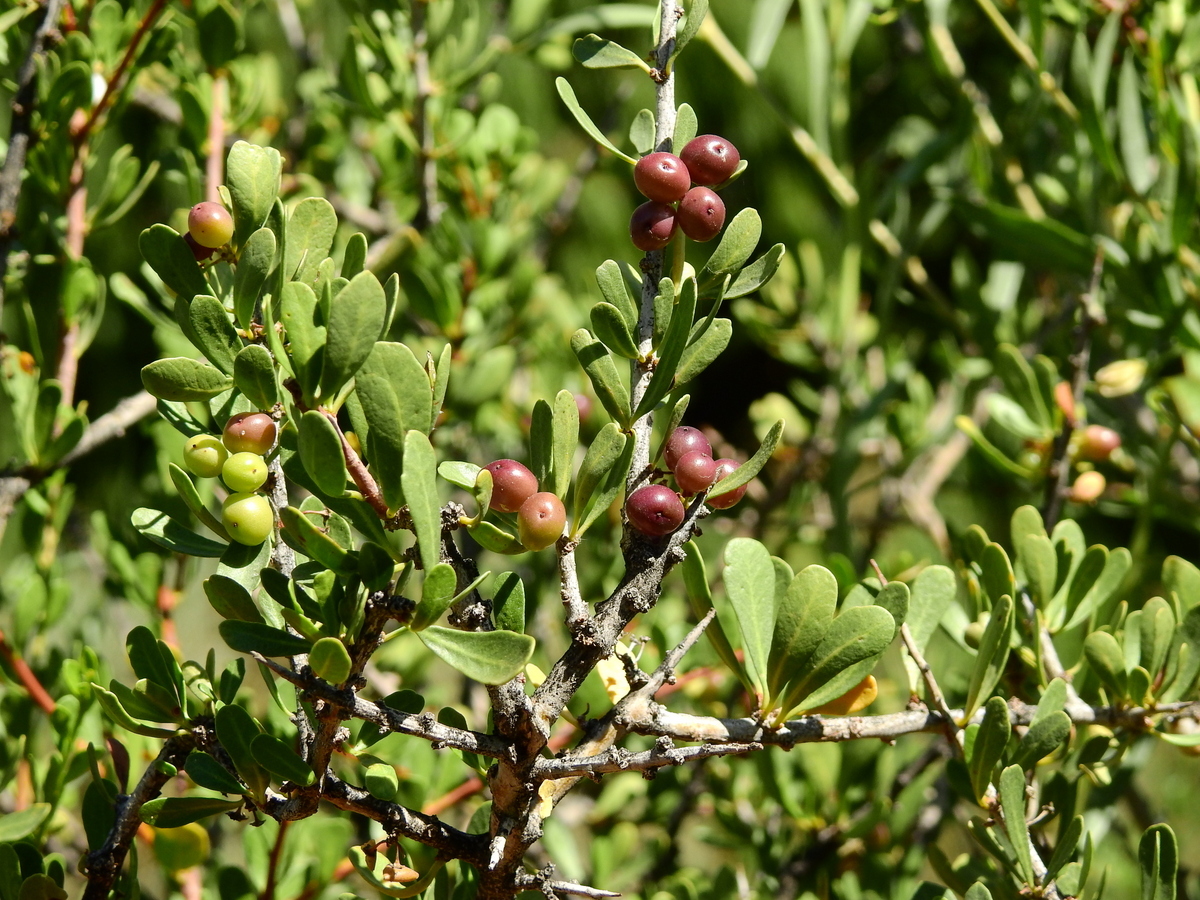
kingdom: Plantae
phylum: Tracheophyta
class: Magnoliopsida
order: Sapindales
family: Anacardiaceae
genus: Schinus
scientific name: Schinus polygama
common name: Hardee peppertree
